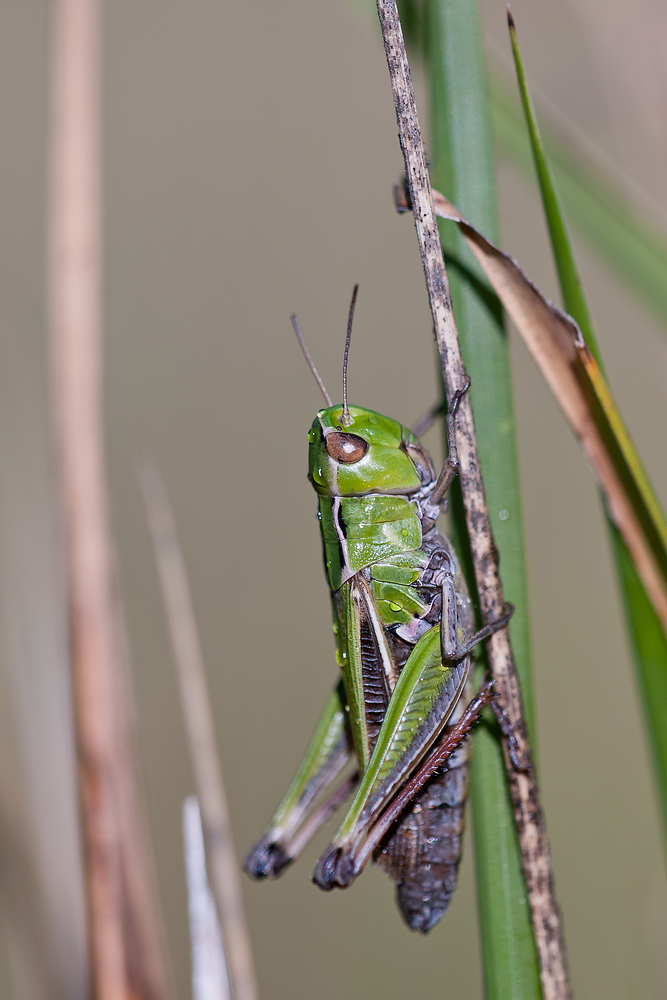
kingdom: Animalia
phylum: Arthropoda
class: Insecta
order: Orthoptera
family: Acrididae
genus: Stenobothrus
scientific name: Stenobothrus lineatus
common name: Stripe-winged grasshopper
